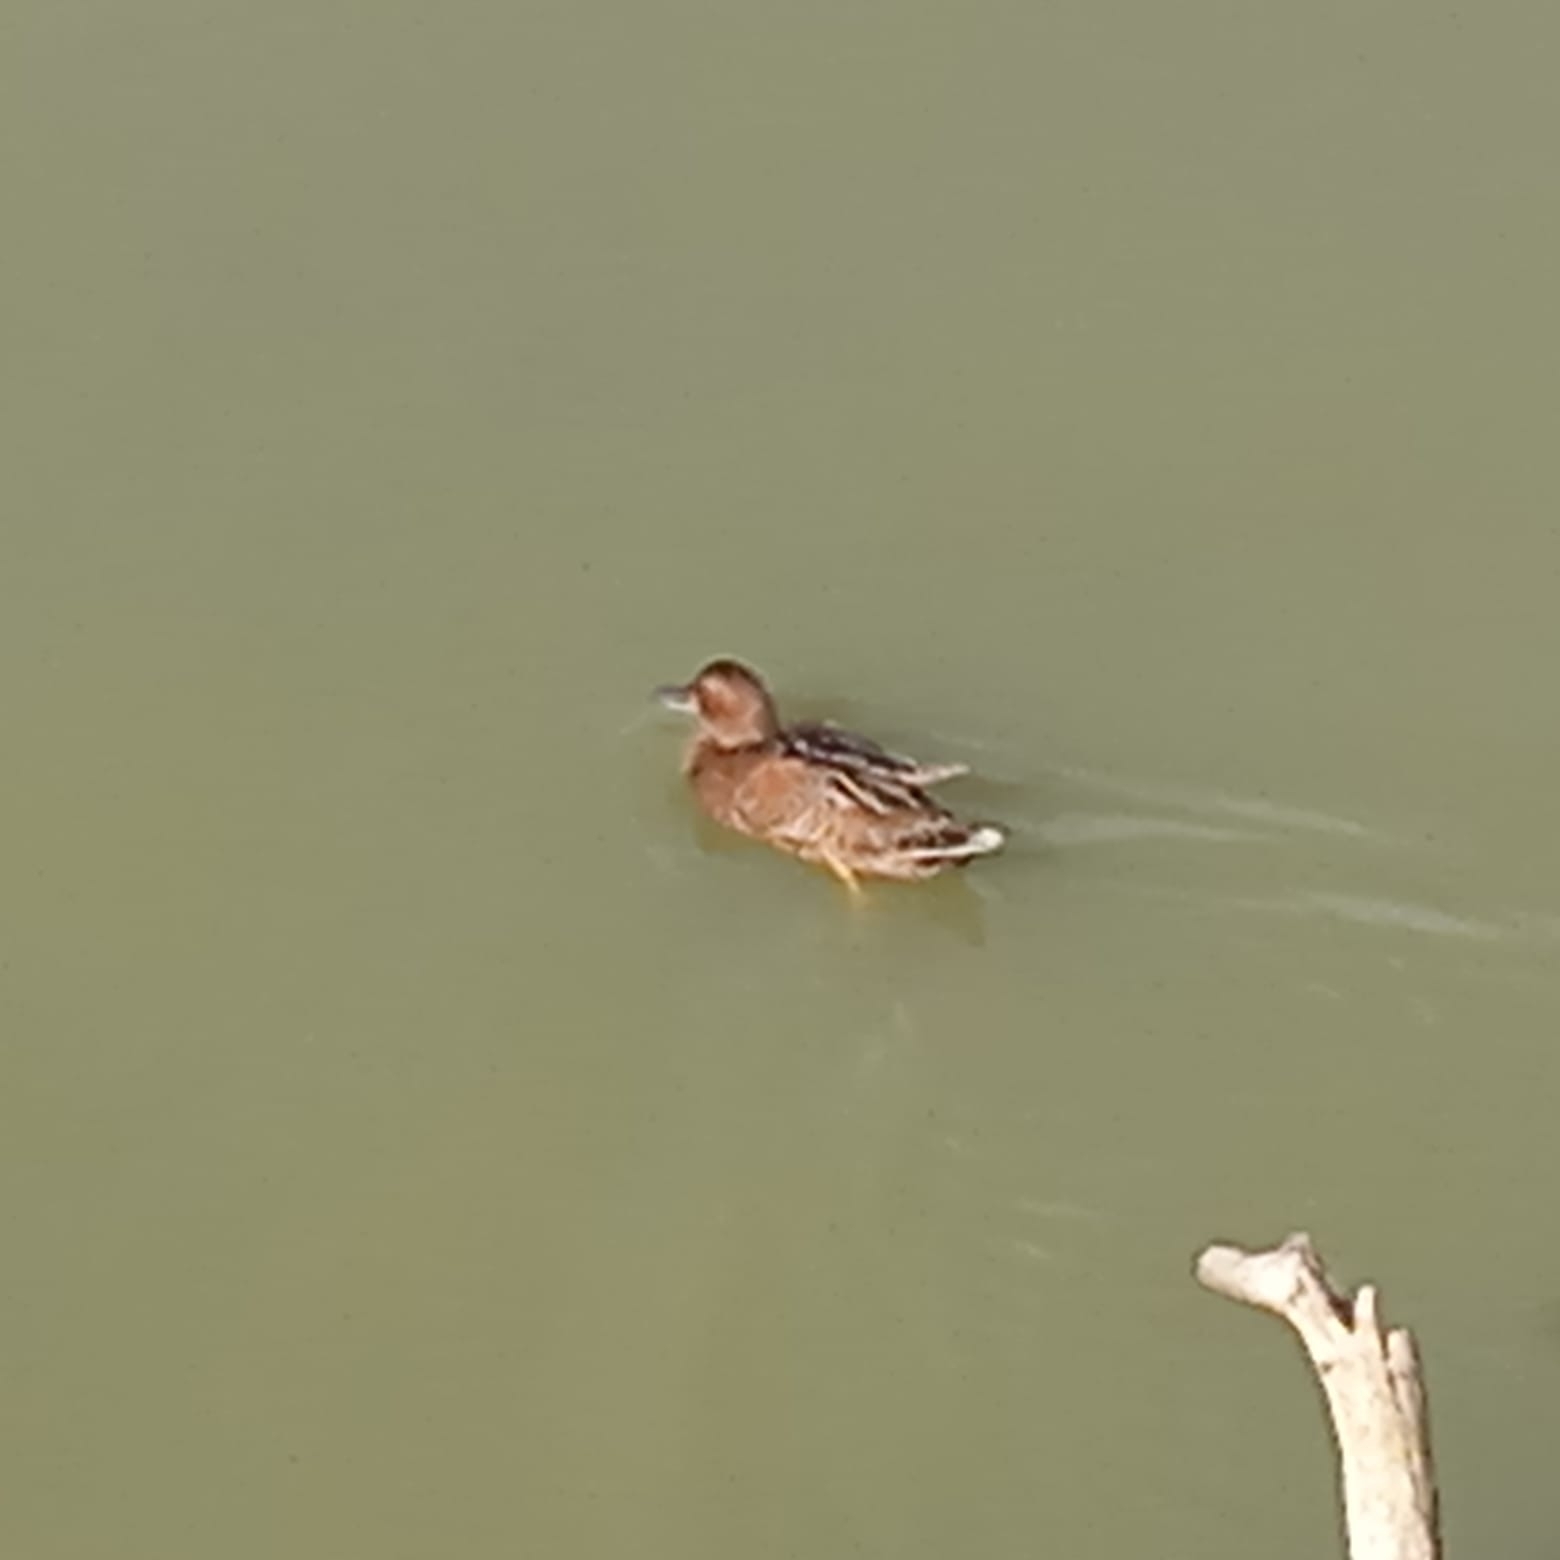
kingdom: Animalia
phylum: Chordata
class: Aves
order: Anseriformes
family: Anatidae
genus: Spatula
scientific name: Spatula cyanoptera
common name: Cinnamon teal
